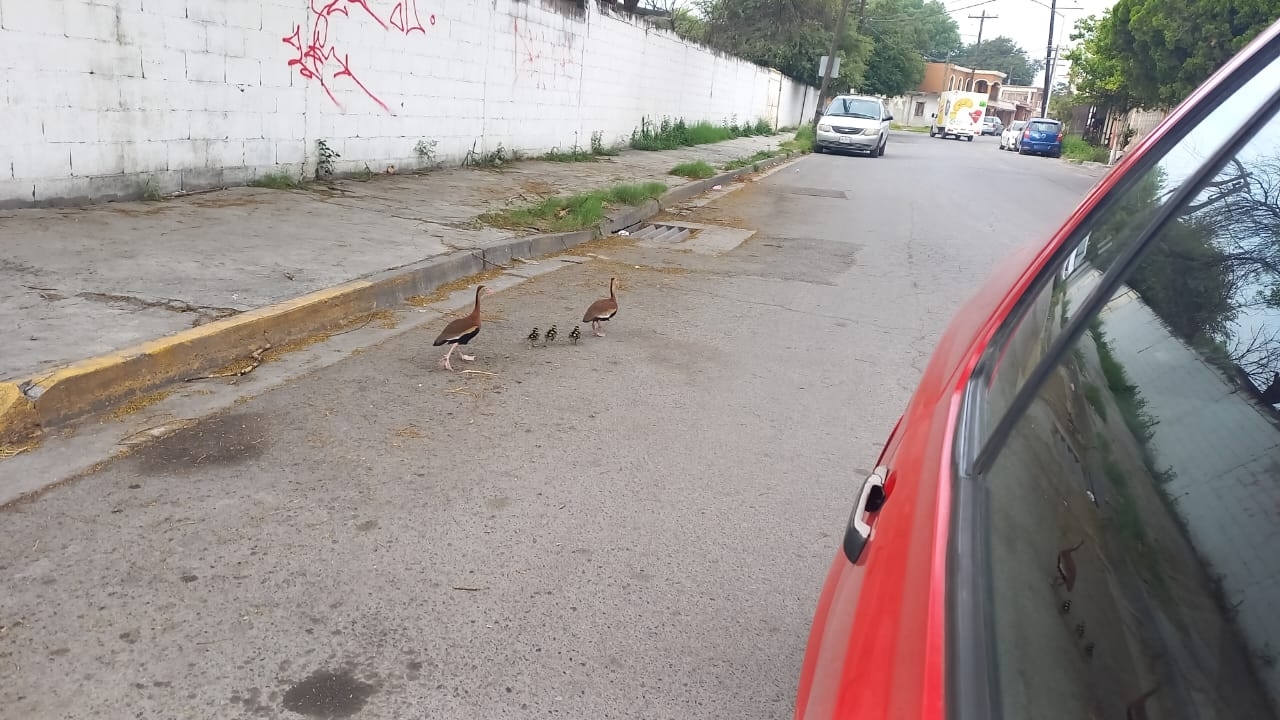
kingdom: Animalia
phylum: Chordata
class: Aves
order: Anseriformes
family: Anatidae
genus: Dendrocygna
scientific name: Dendrocygna autumnalis
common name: Black-bellied whistling duck
